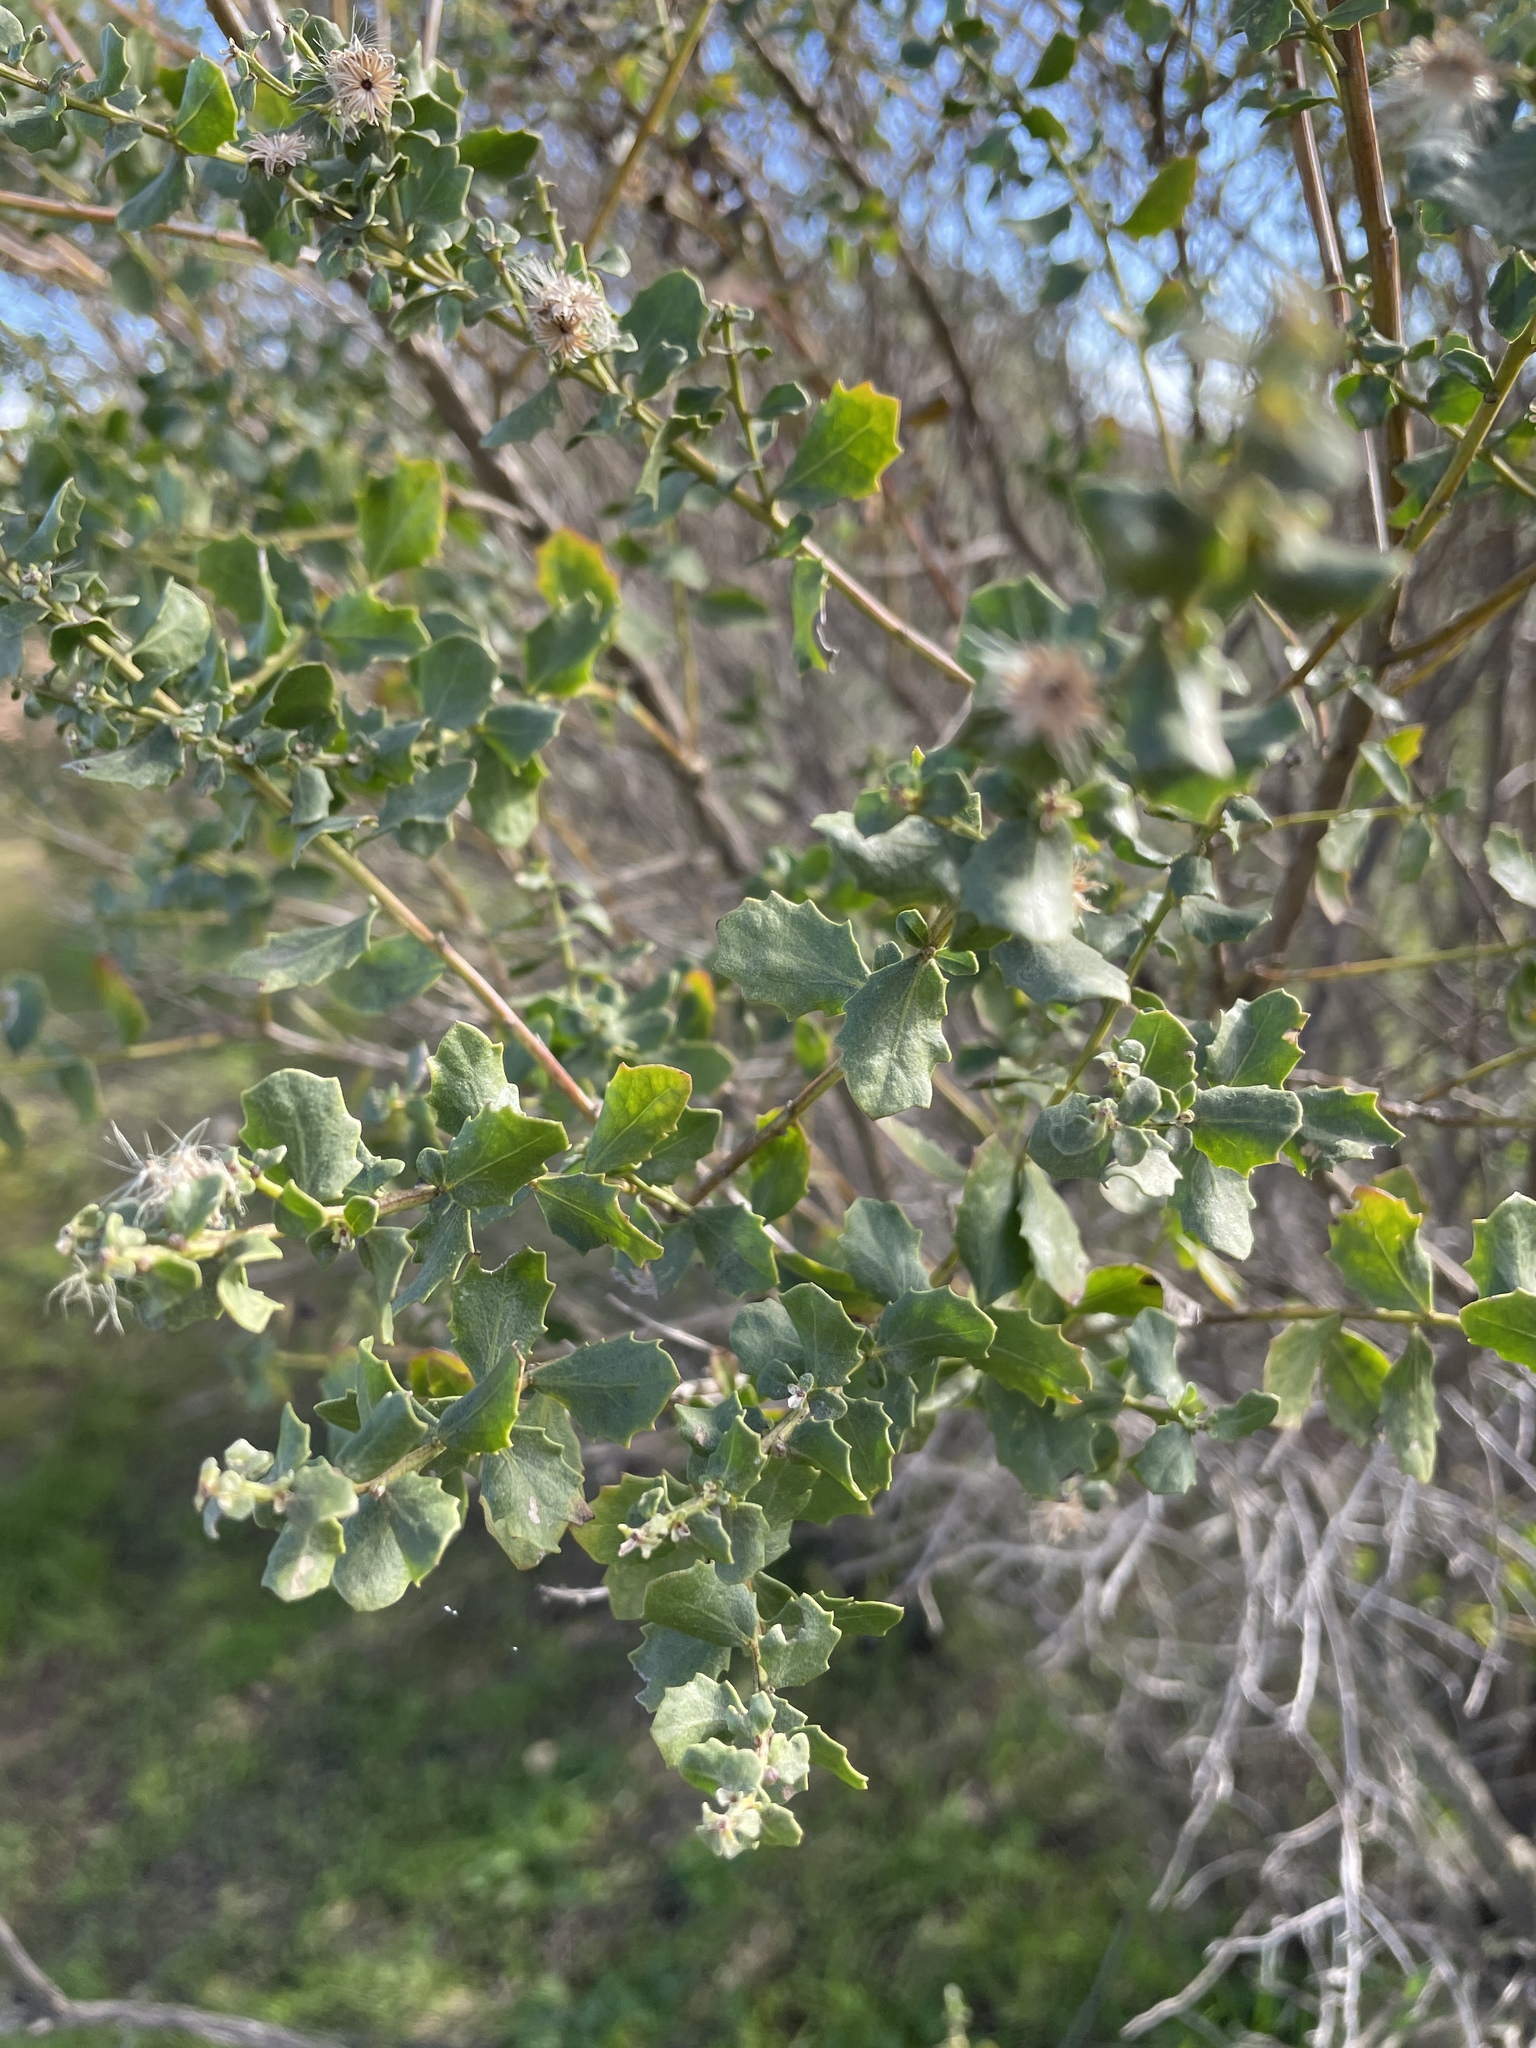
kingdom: Plantae
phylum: Tracheophyta
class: Magnoliopsida
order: Asterales
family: Asteraceae
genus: Baccharis
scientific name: Baccharis pilularis
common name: Coyotebrush
